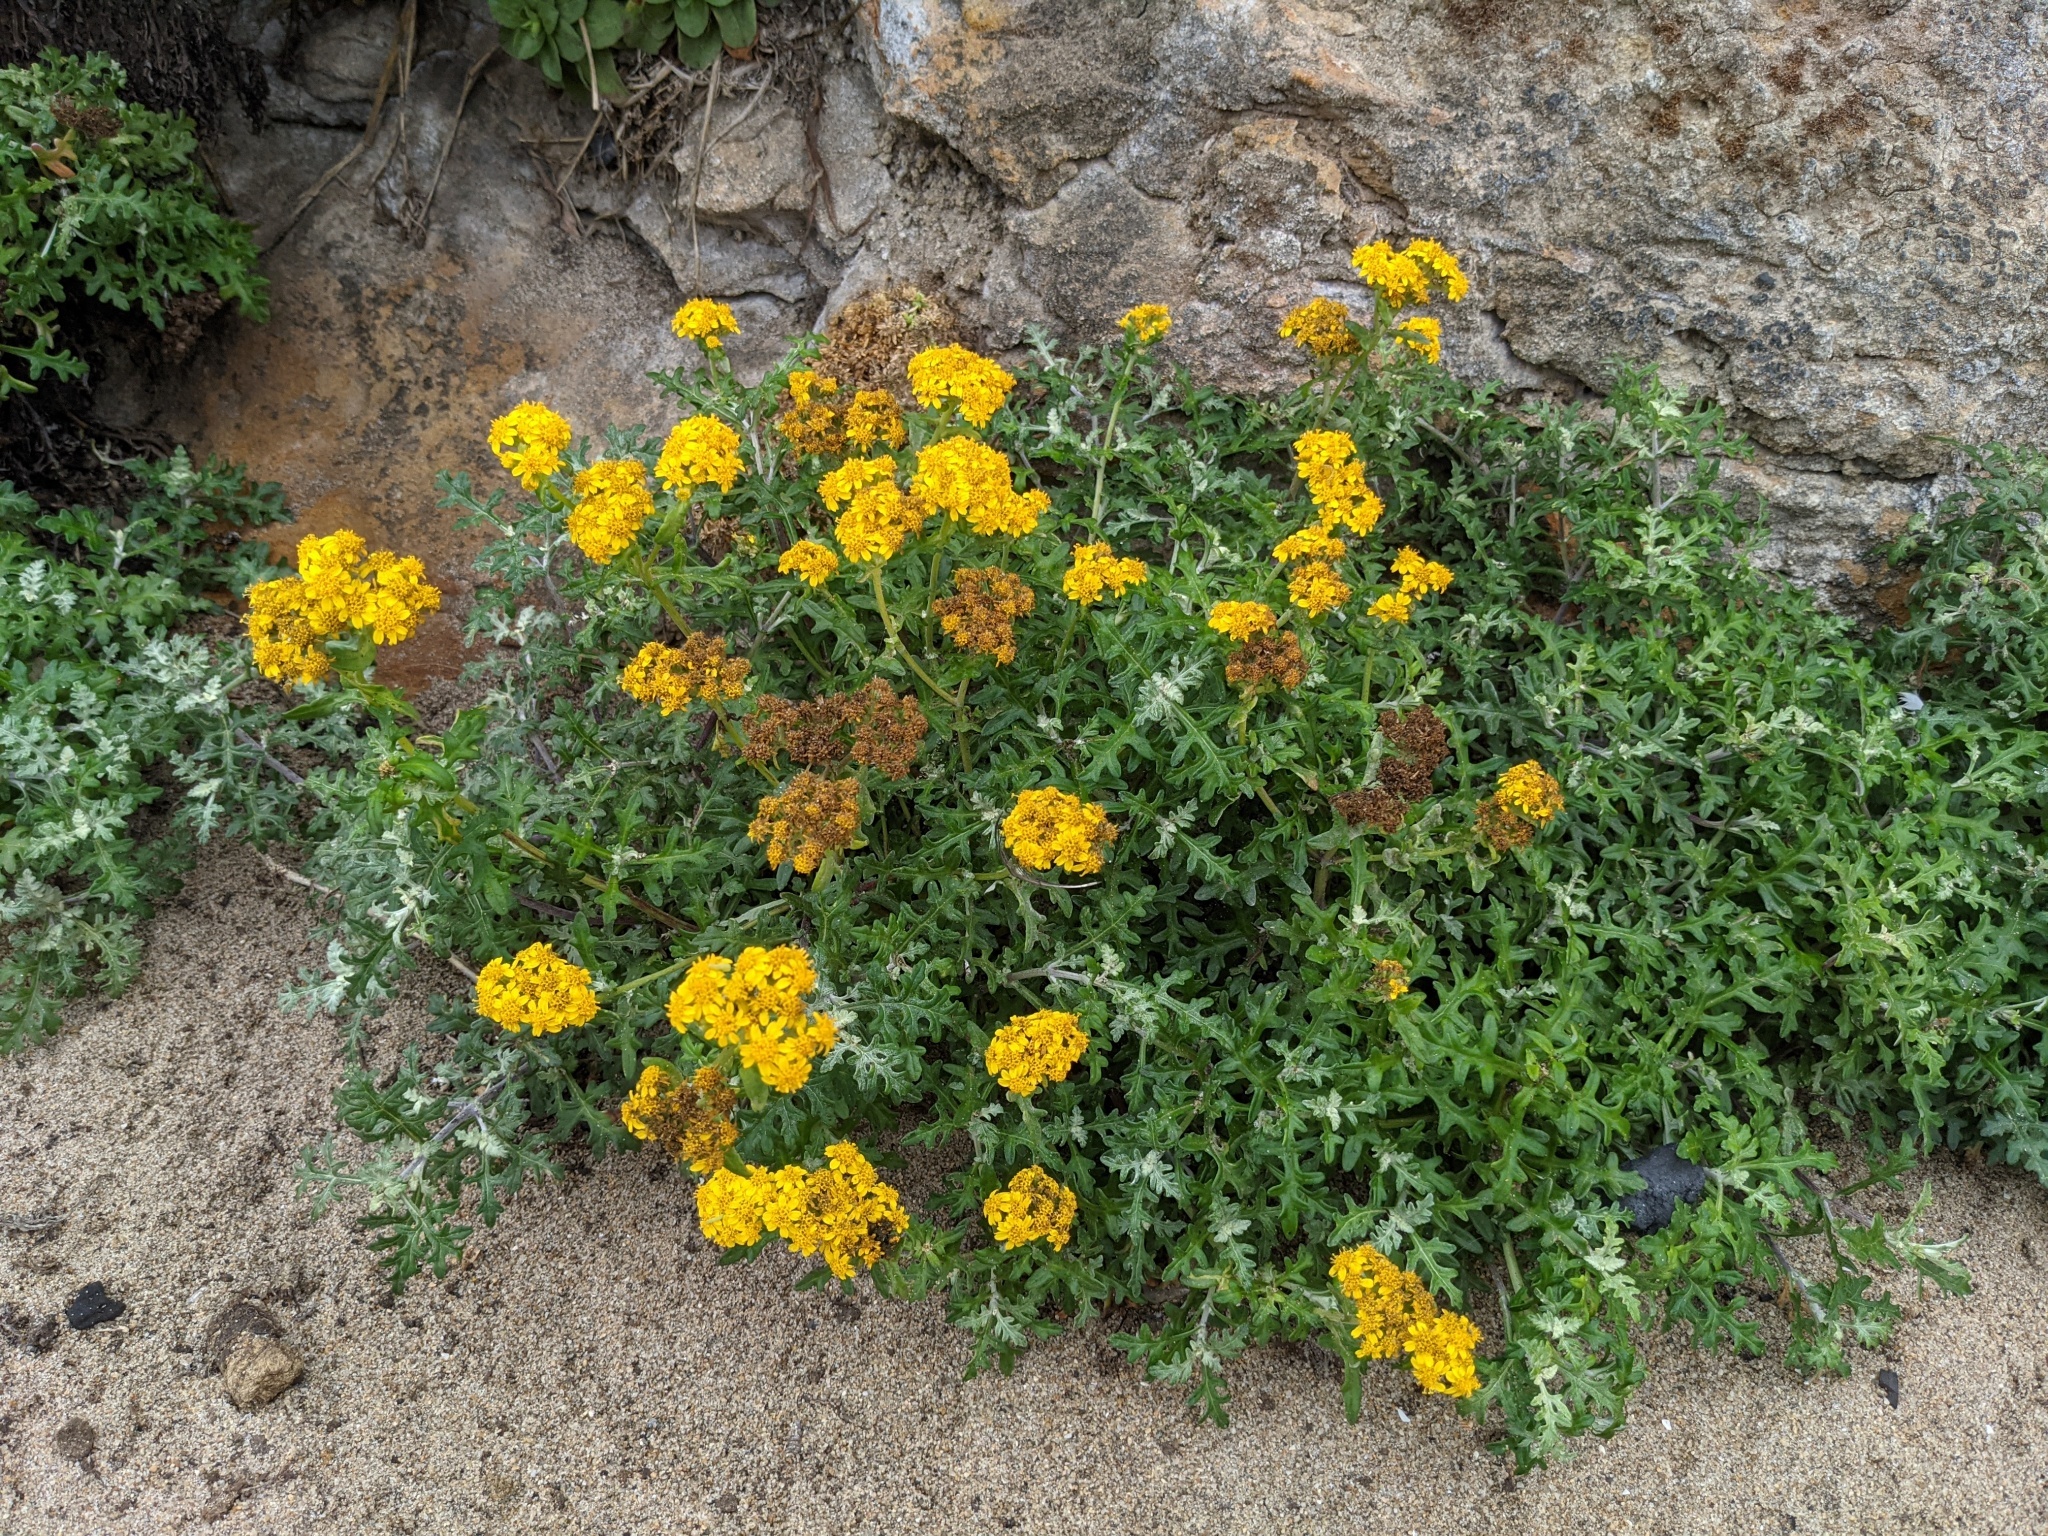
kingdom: Plantae
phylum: Tracheophyta
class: Magnoliopsida
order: Asterales
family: Asteraceae
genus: Eriophyllum
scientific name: Eriophyllum staechadifolium
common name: Lizardtail
